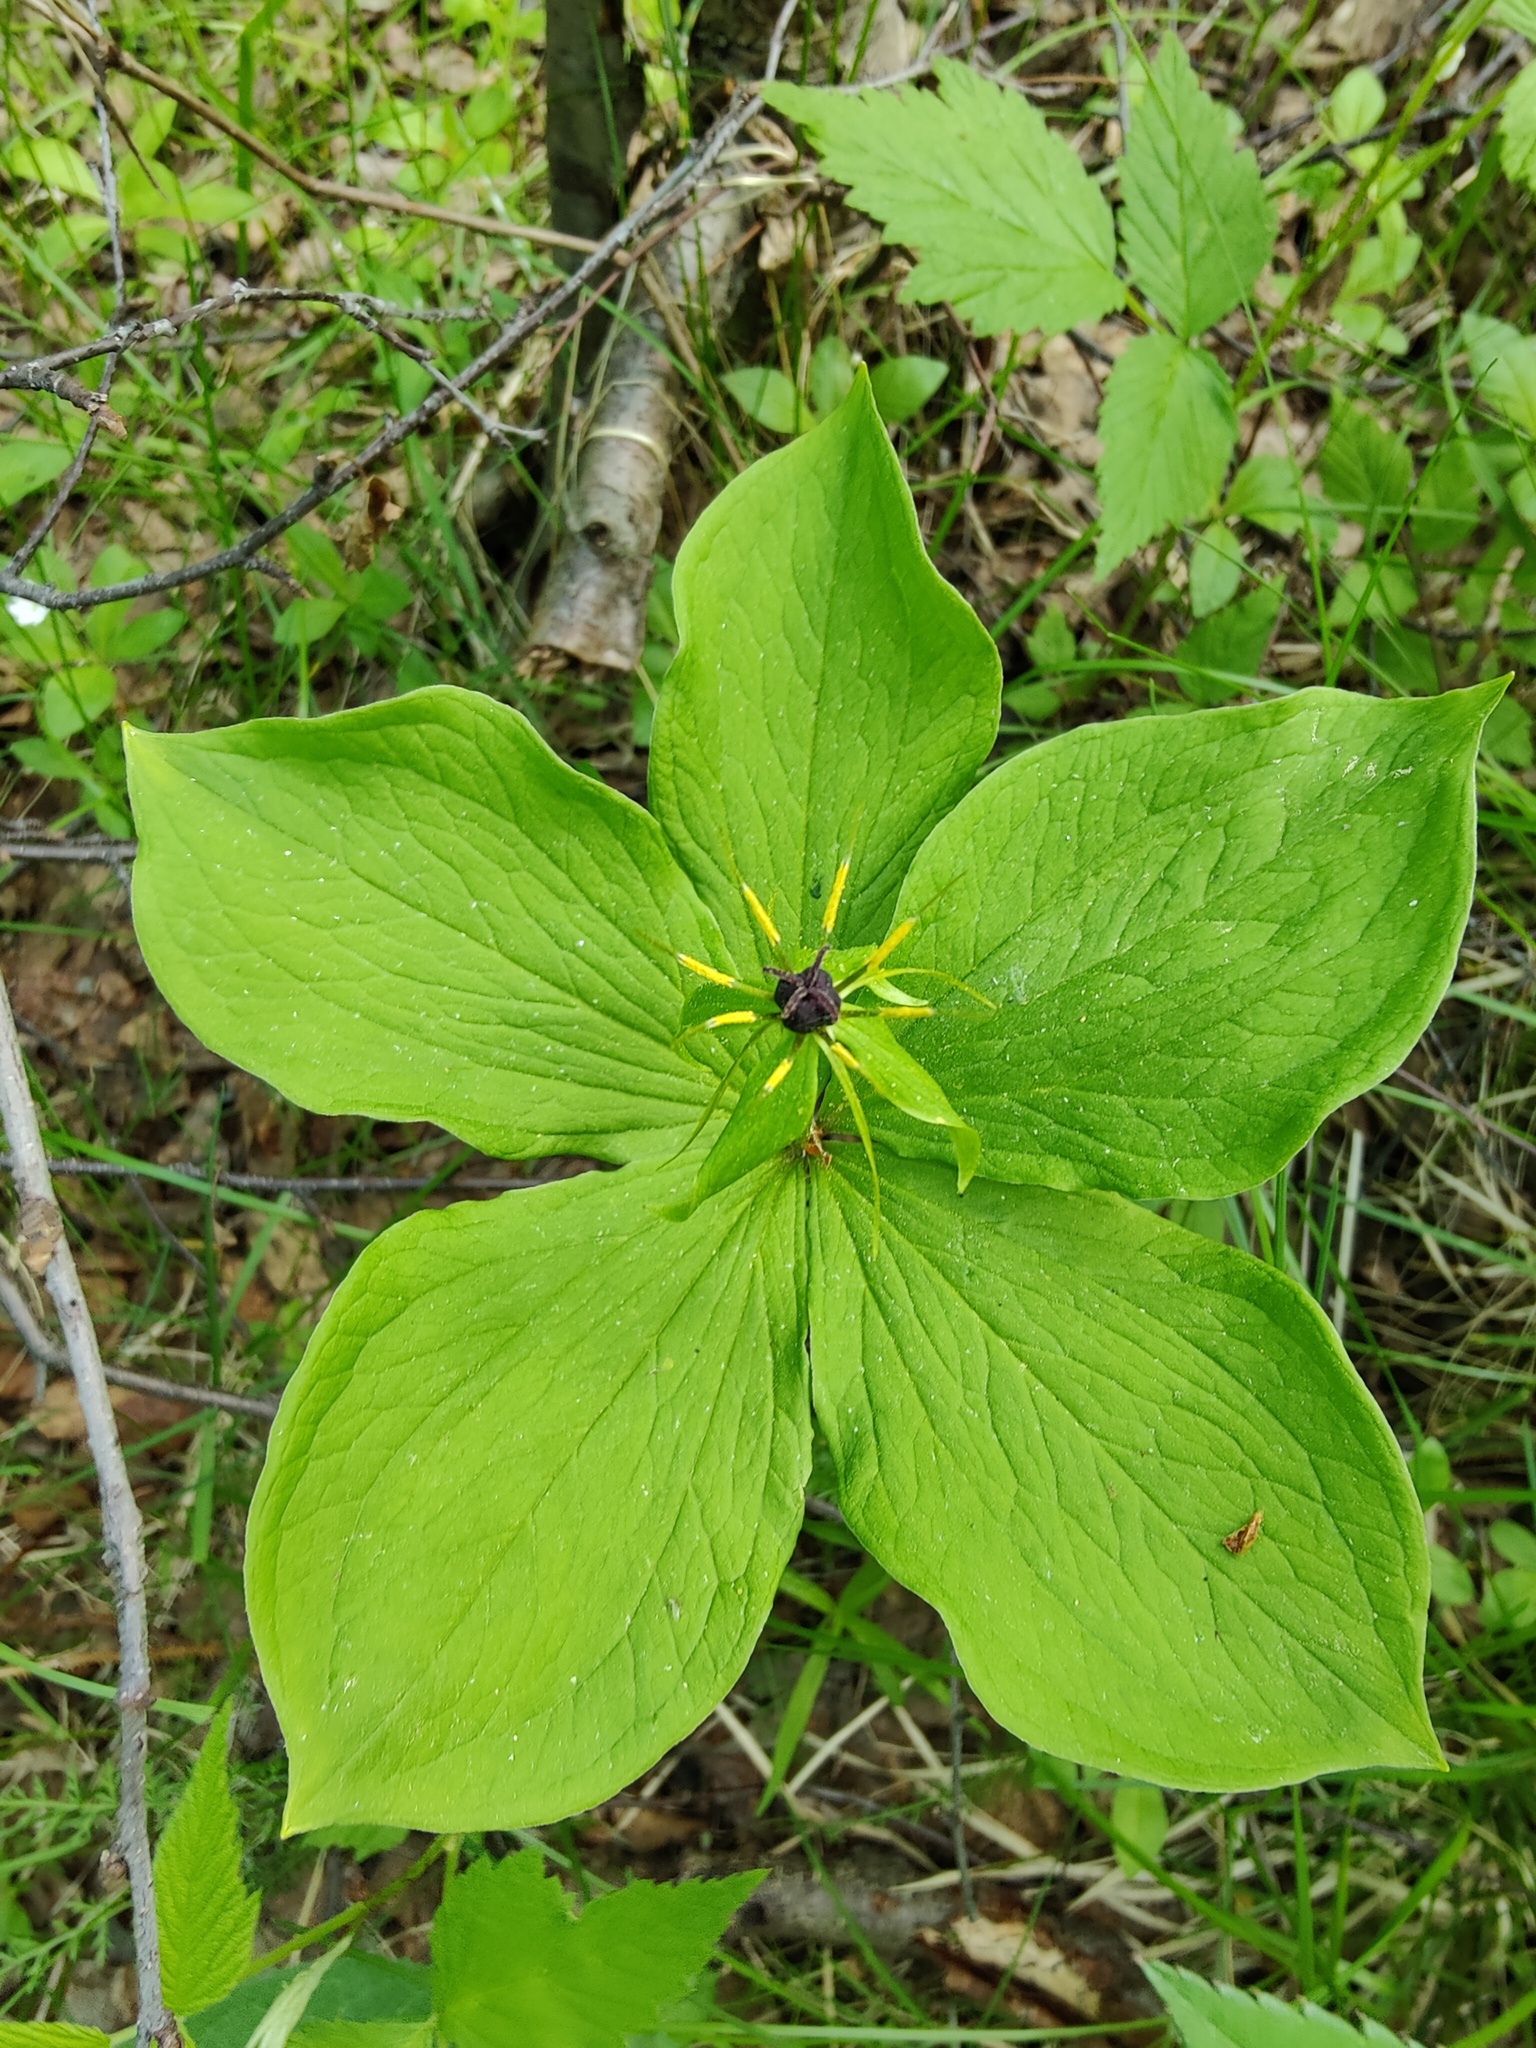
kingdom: Plantae
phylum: Tracheophyta
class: Liliopsida
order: Liliales
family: Melanthiaceae
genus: Paris
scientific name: Paris quadrifolia
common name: Herb-paris
